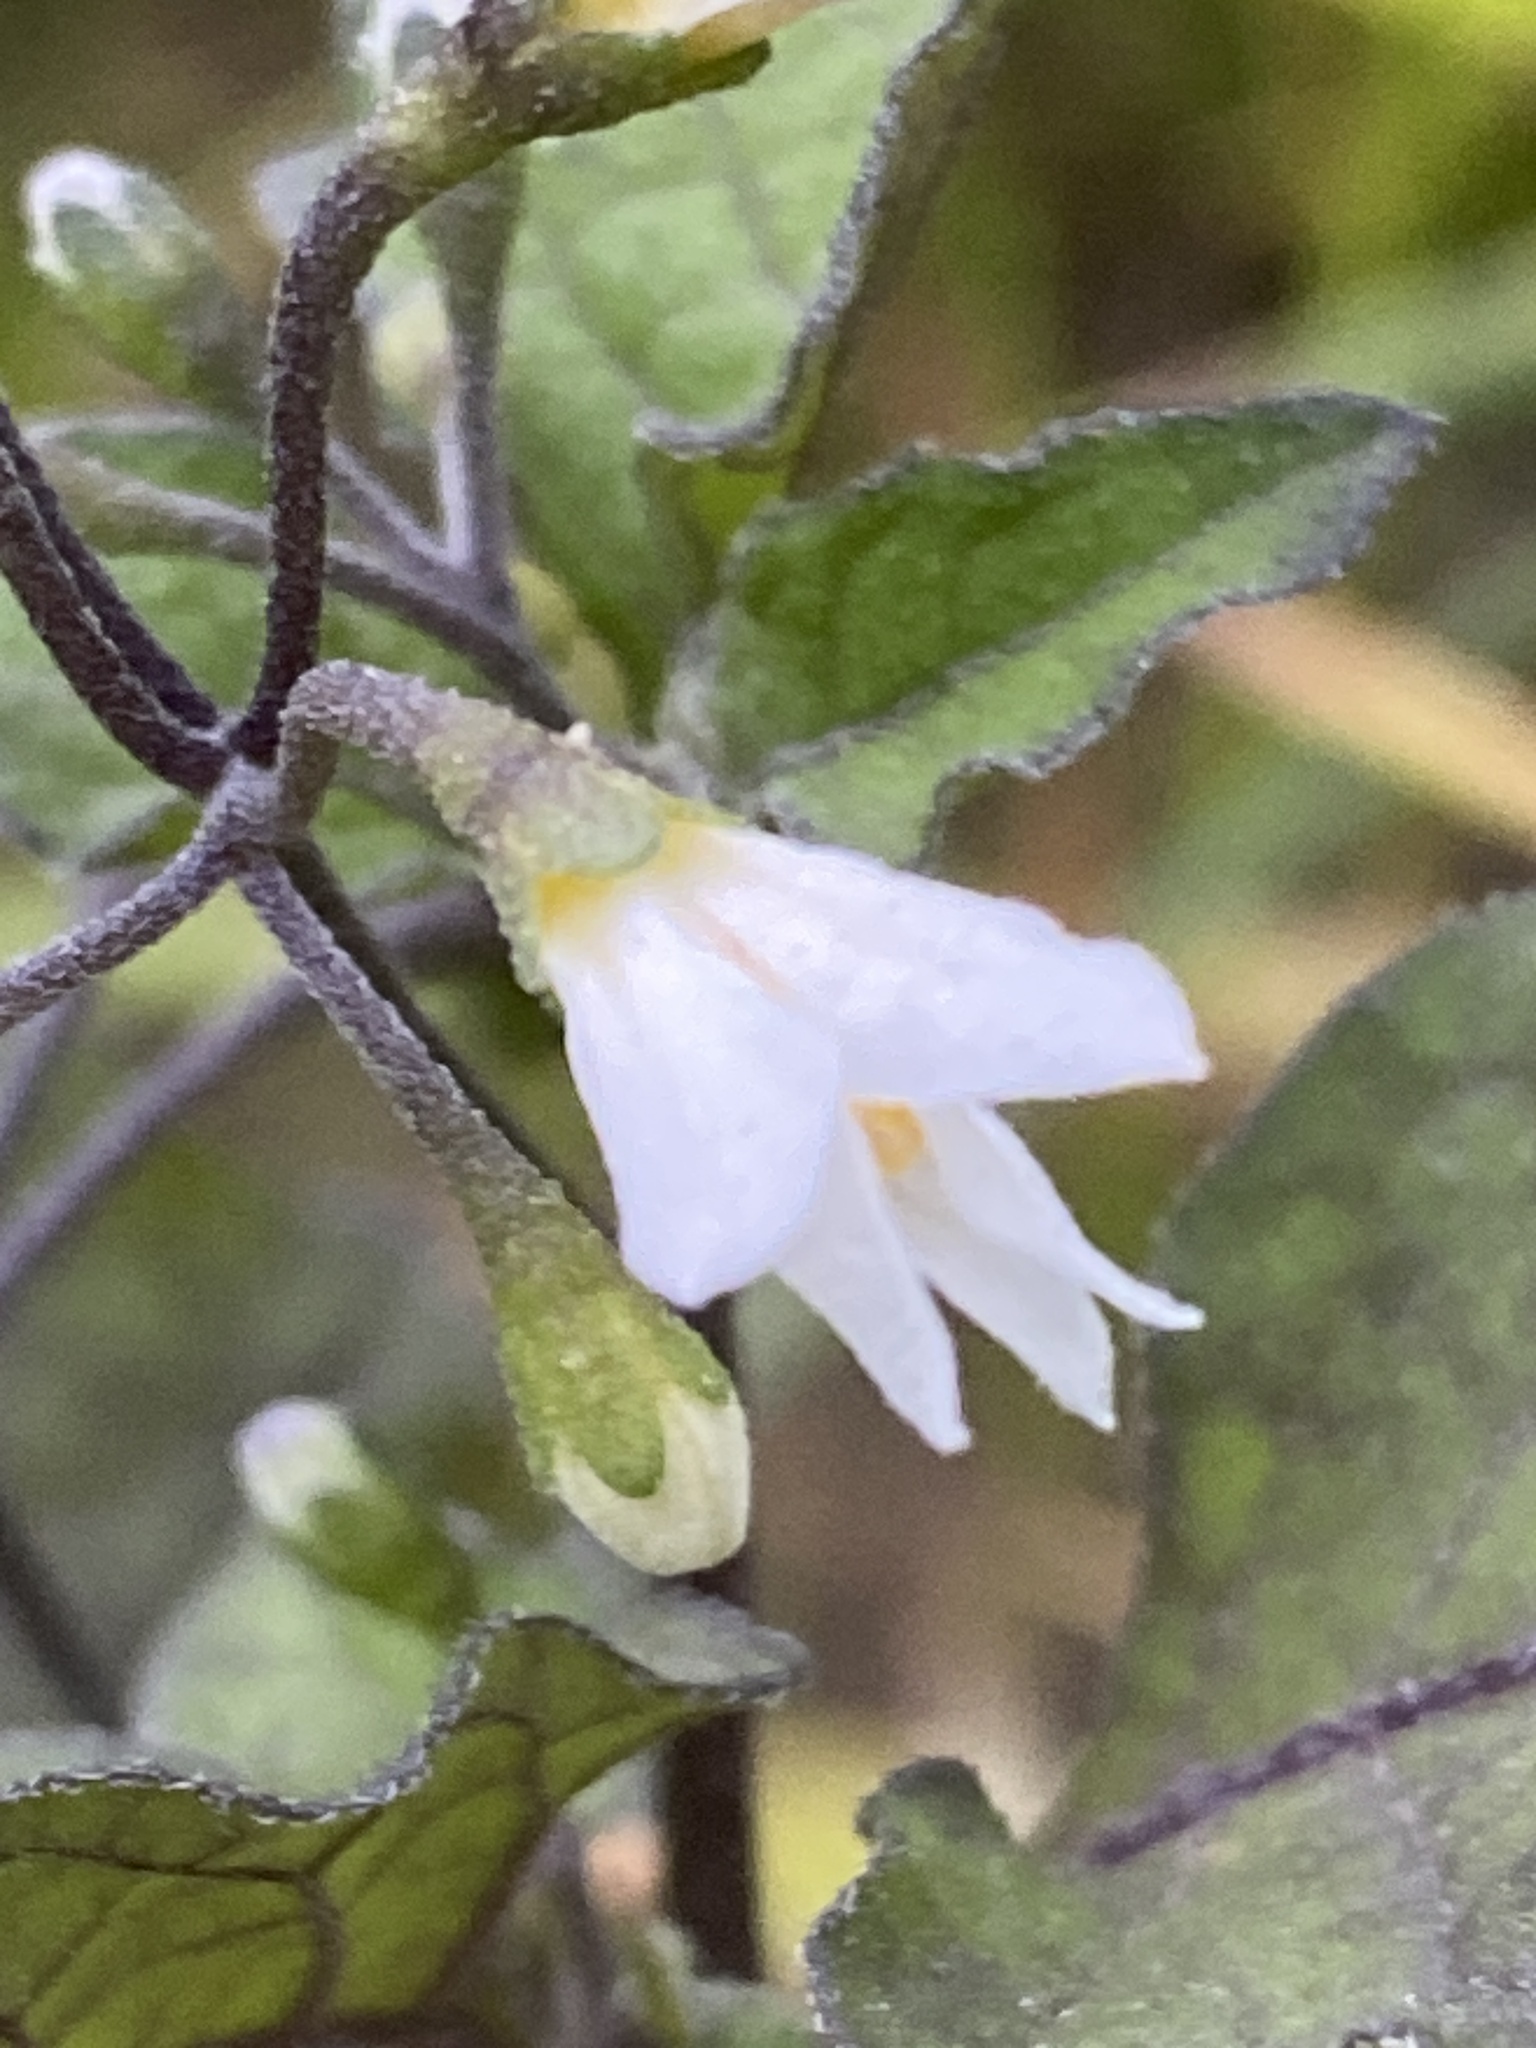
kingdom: Plantae
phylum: Tracheophyta
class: Magnoliopsida
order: Solanales
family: Solanaceae
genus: Solanum
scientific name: Solanum nigrum
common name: Black nightshade
